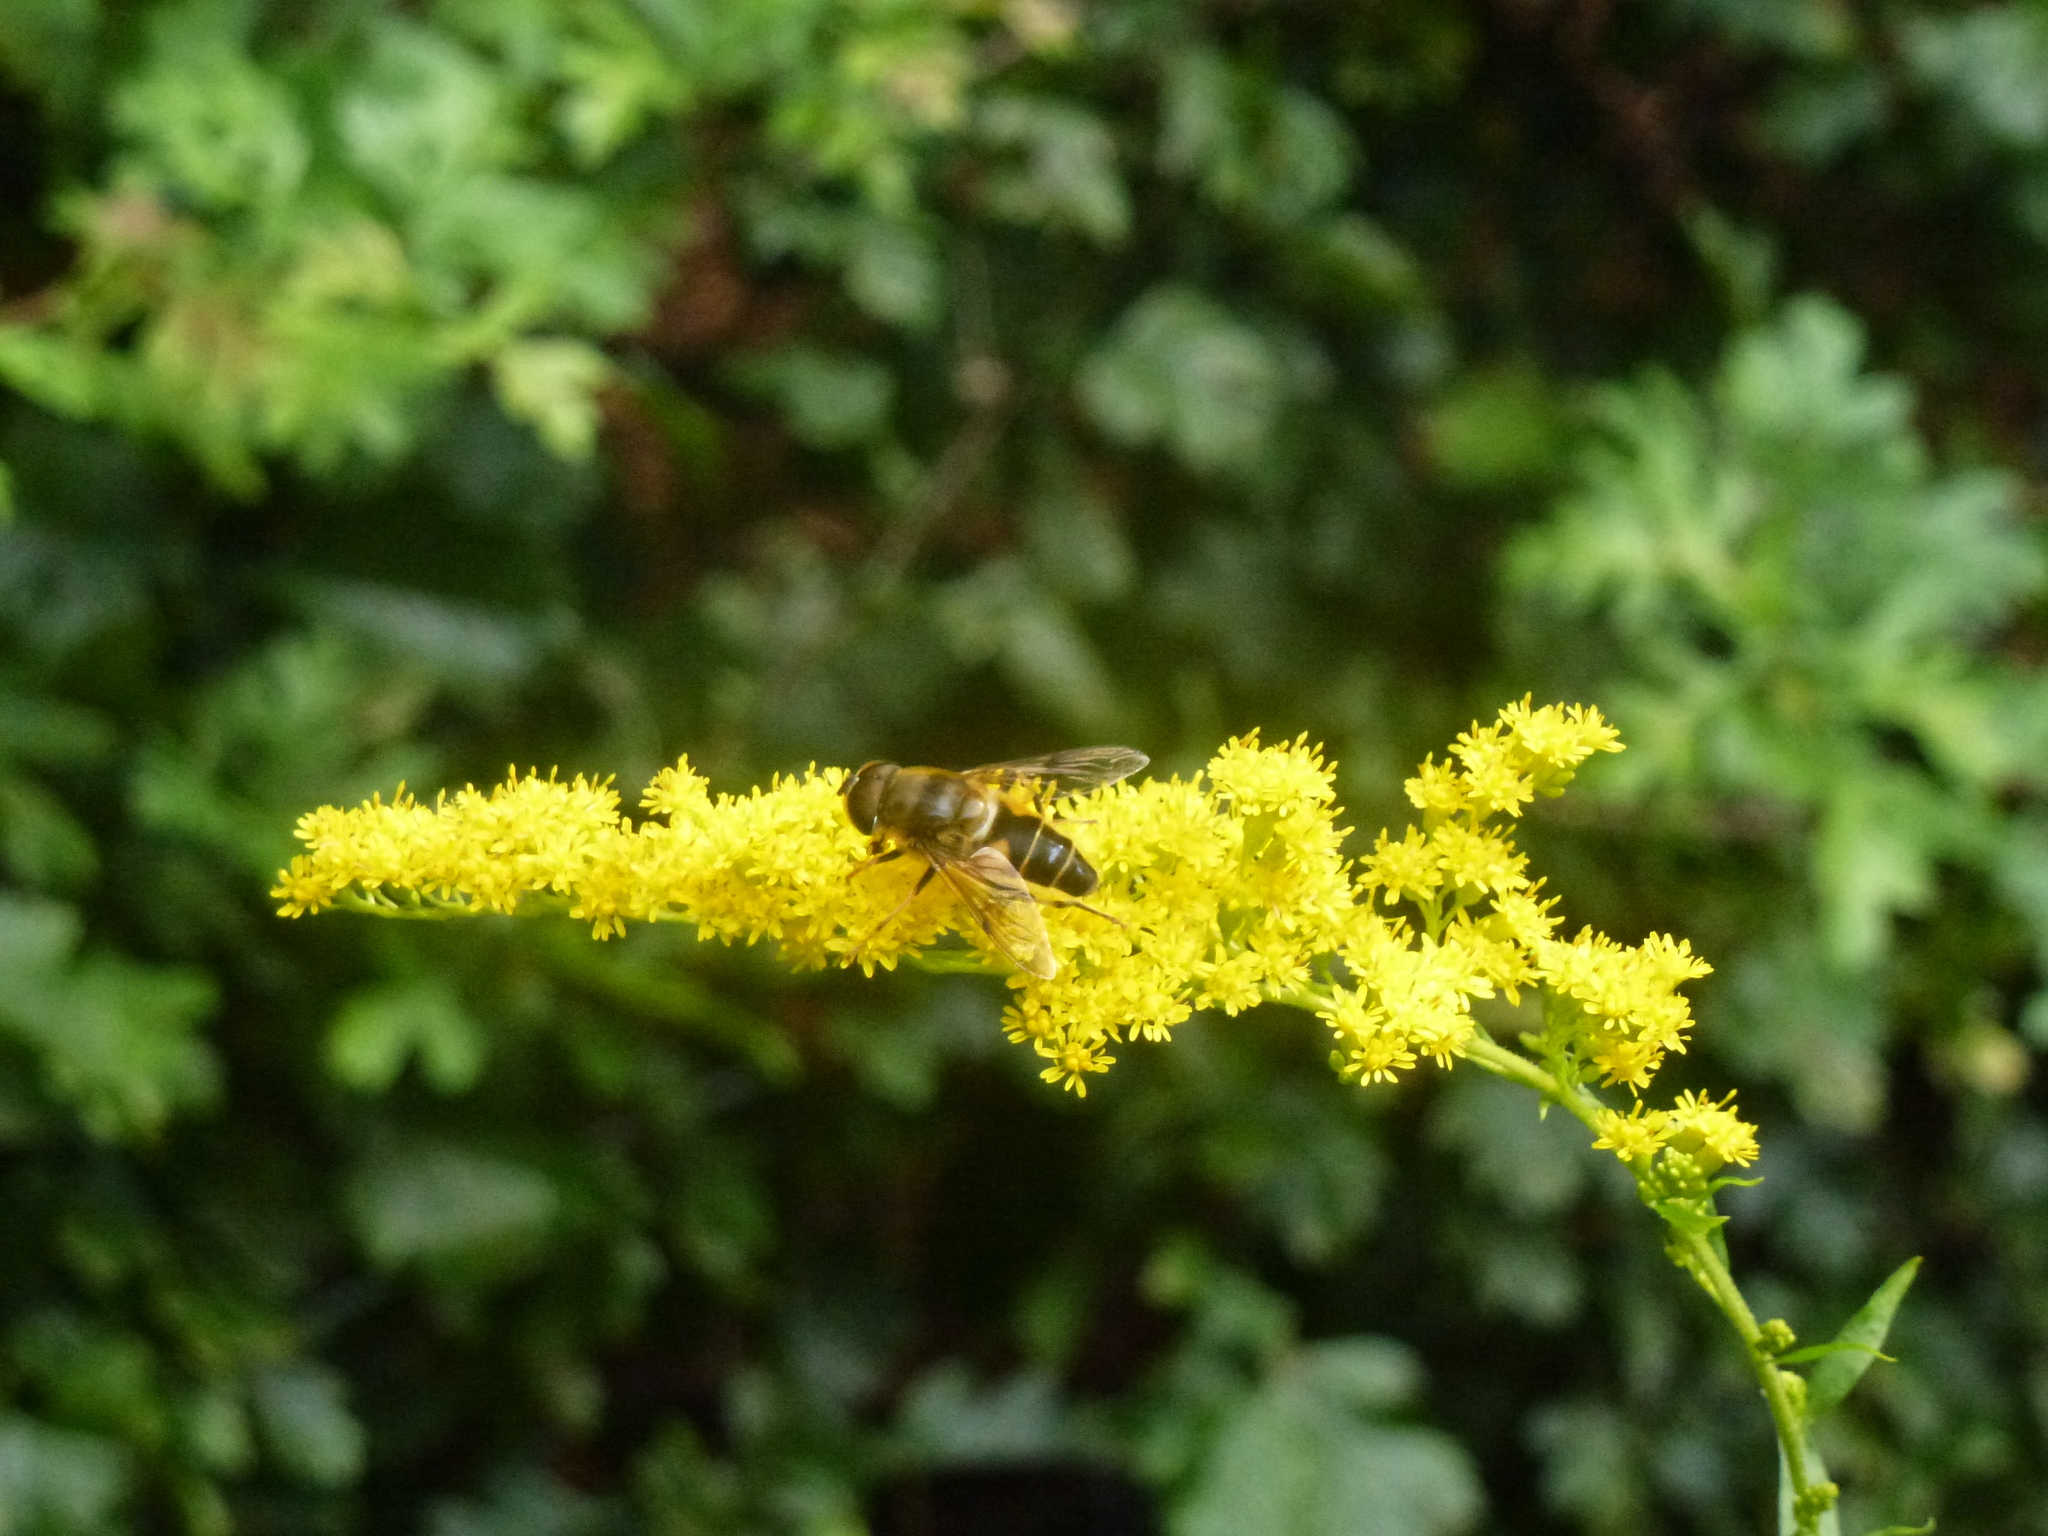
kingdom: Animalia
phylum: Arthropoda
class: Insecta
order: Diptera
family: Syrphidae
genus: Eristalis
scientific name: Eristalis pertinax
